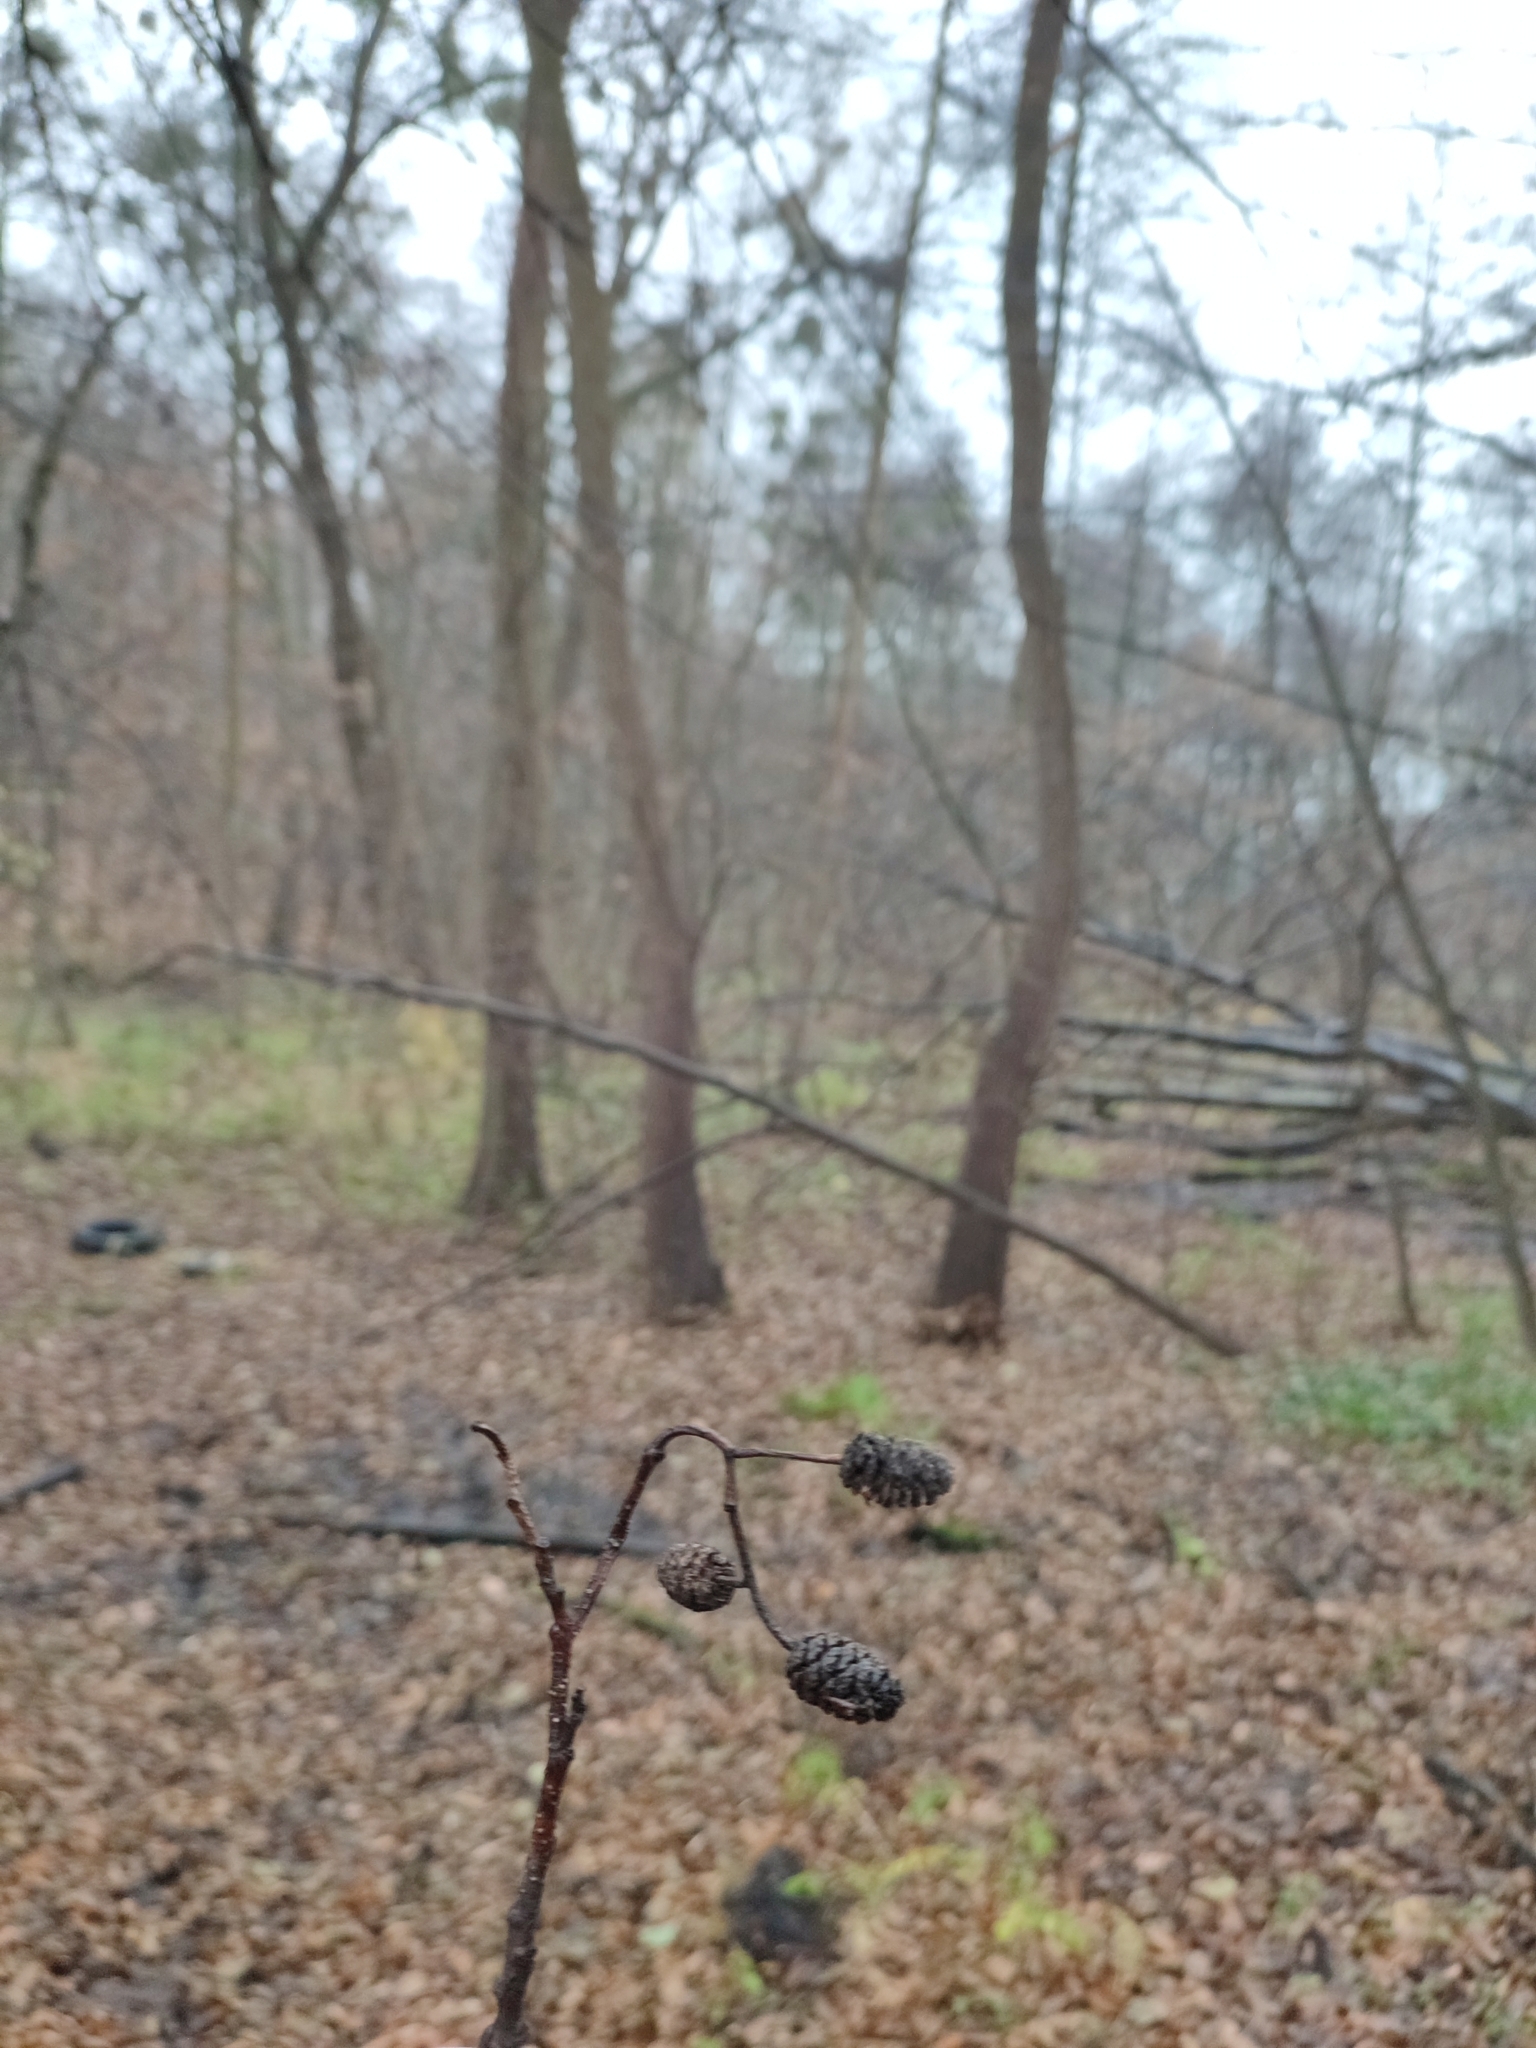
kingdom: Plantae
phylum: Tracheophyta
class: Magnoliopsida
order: Fagales
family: Betulaceae
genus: Alnus
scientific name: Alnus glutinosa
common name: Black alder
